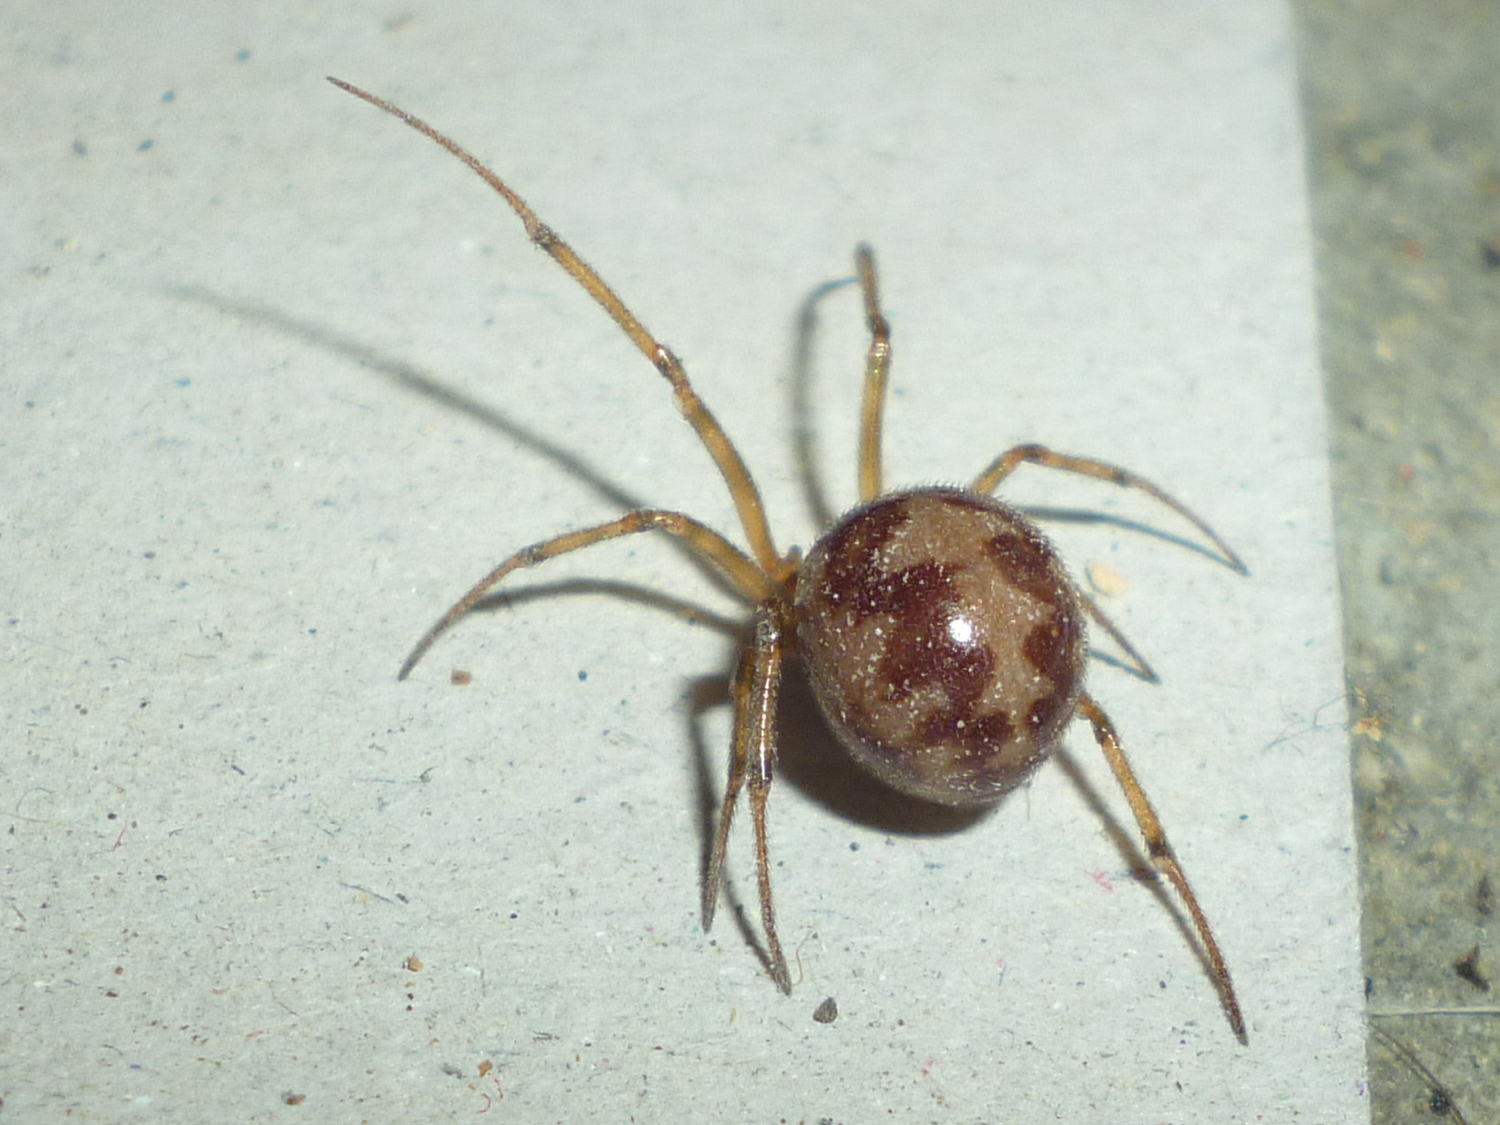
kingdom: Animalia
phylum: Arthropoda
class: Arachnida
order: Araneae
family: Theridiidae
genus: Steatoda
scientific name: Steatoda triangulosa
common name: Triangulate bud spider
